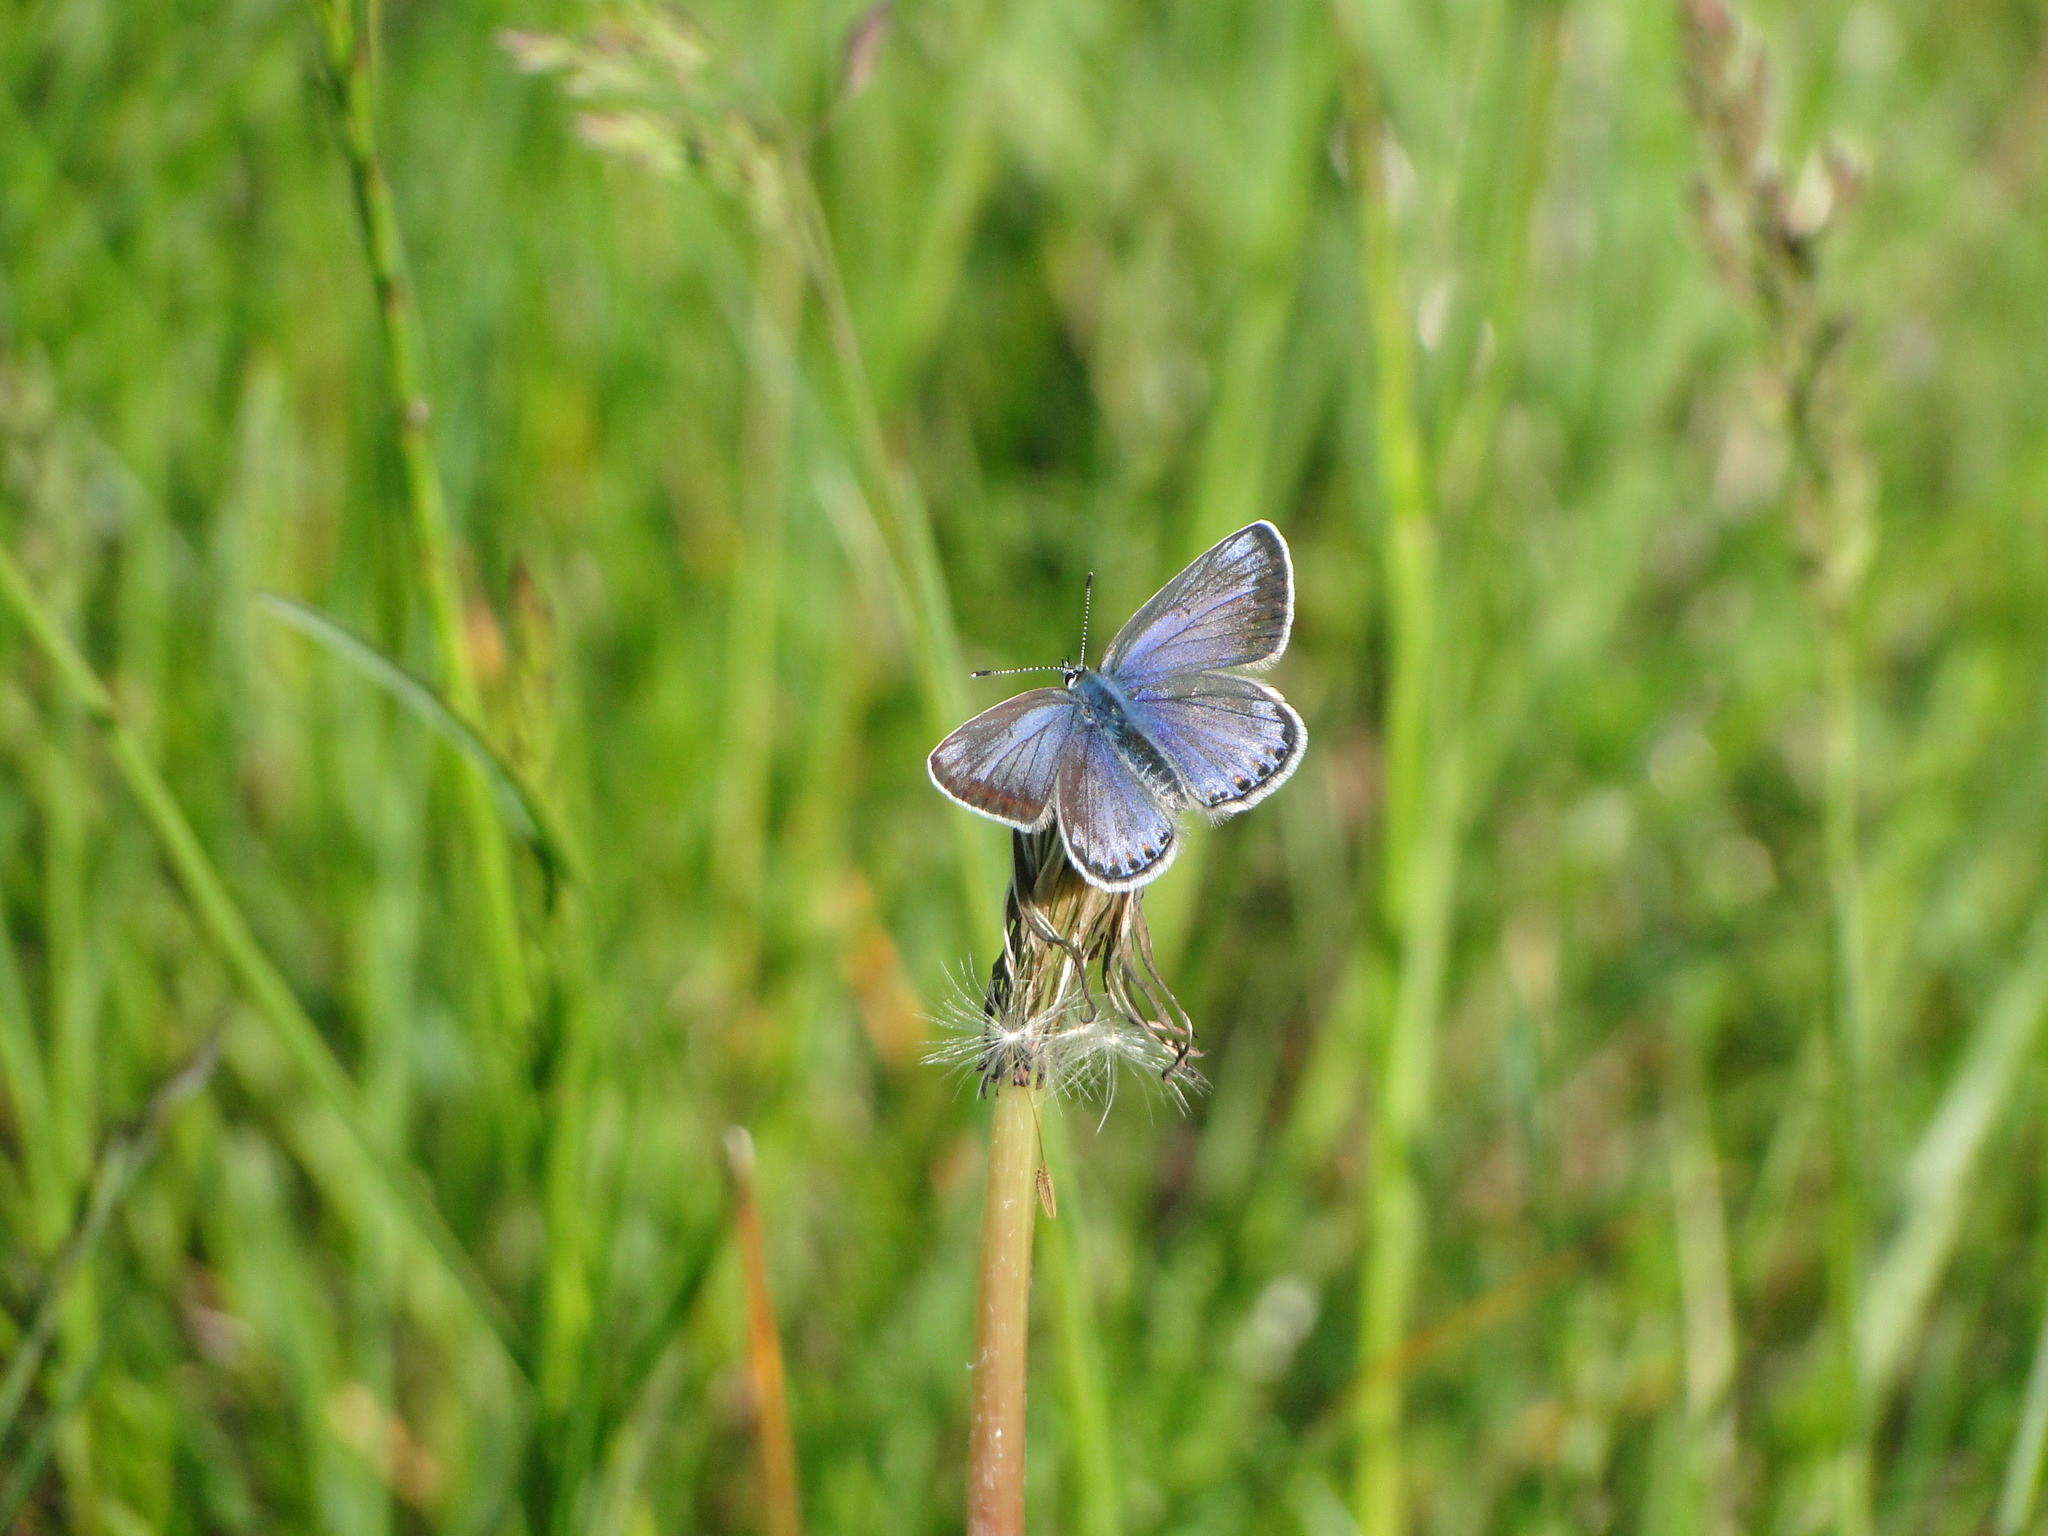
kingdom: Animalia
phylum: Arthropoda
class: Insecta
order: Lepidoptera
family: Lycaenidae
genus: Polyommatus
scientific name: Polyommatus icarus
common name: Common blue
